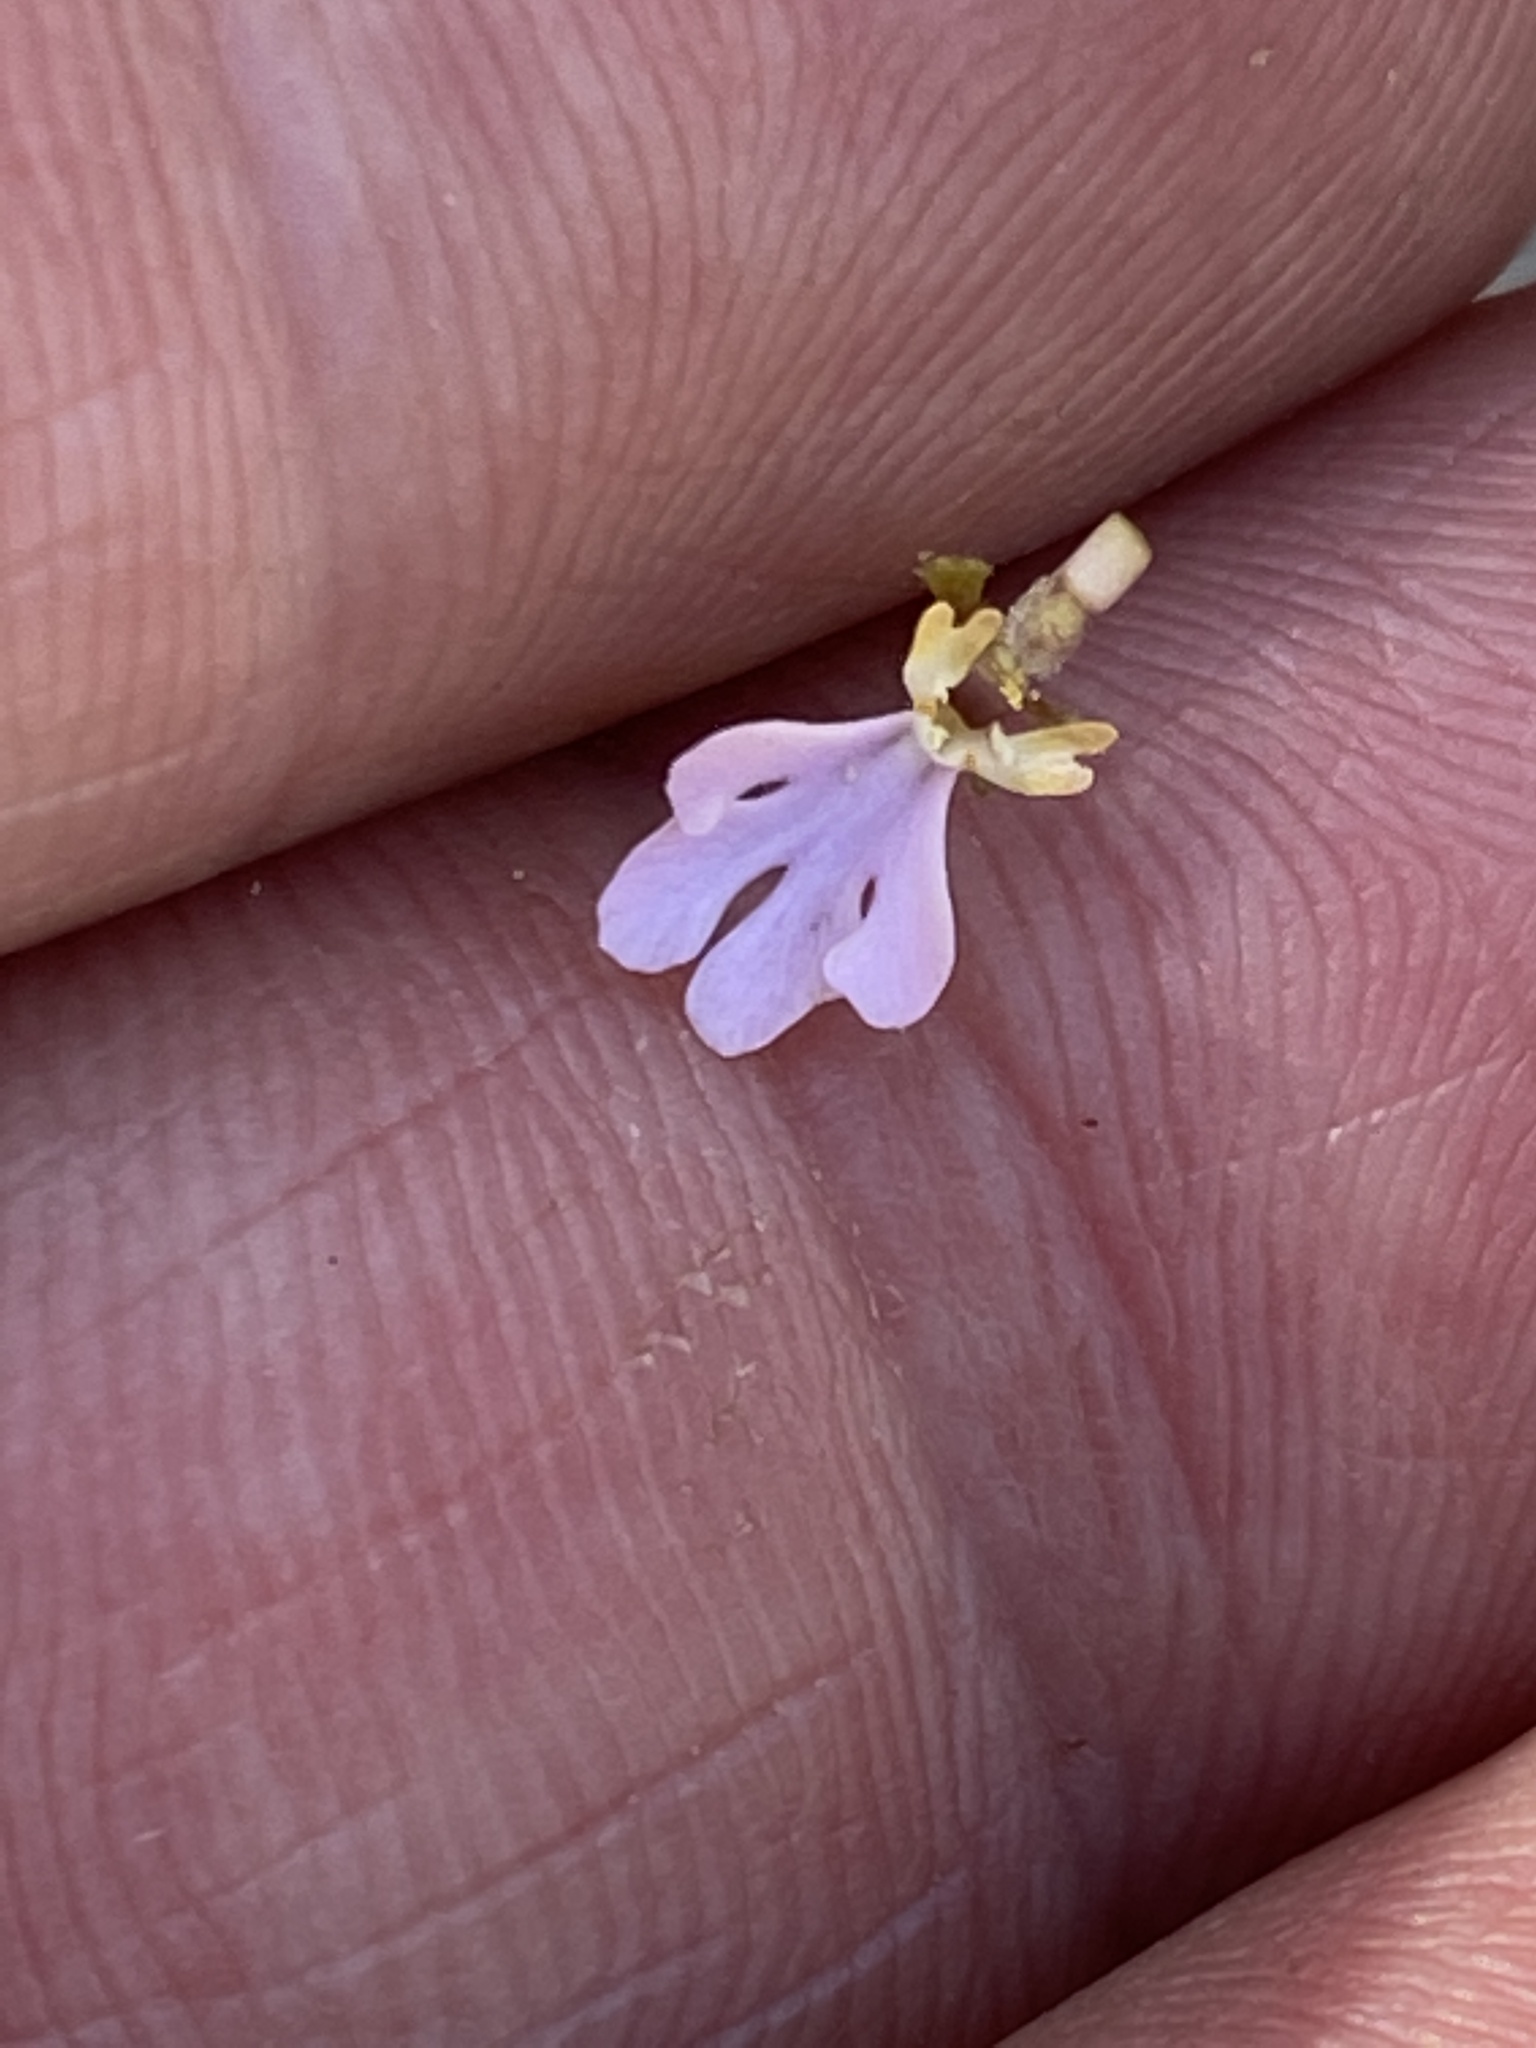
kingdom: Plantae
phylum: Tracheophyta
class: Magnoliopsida
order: Asterales
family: Stylidiaceae
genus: Stylidium
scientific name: Stylidium pachyrhizum
